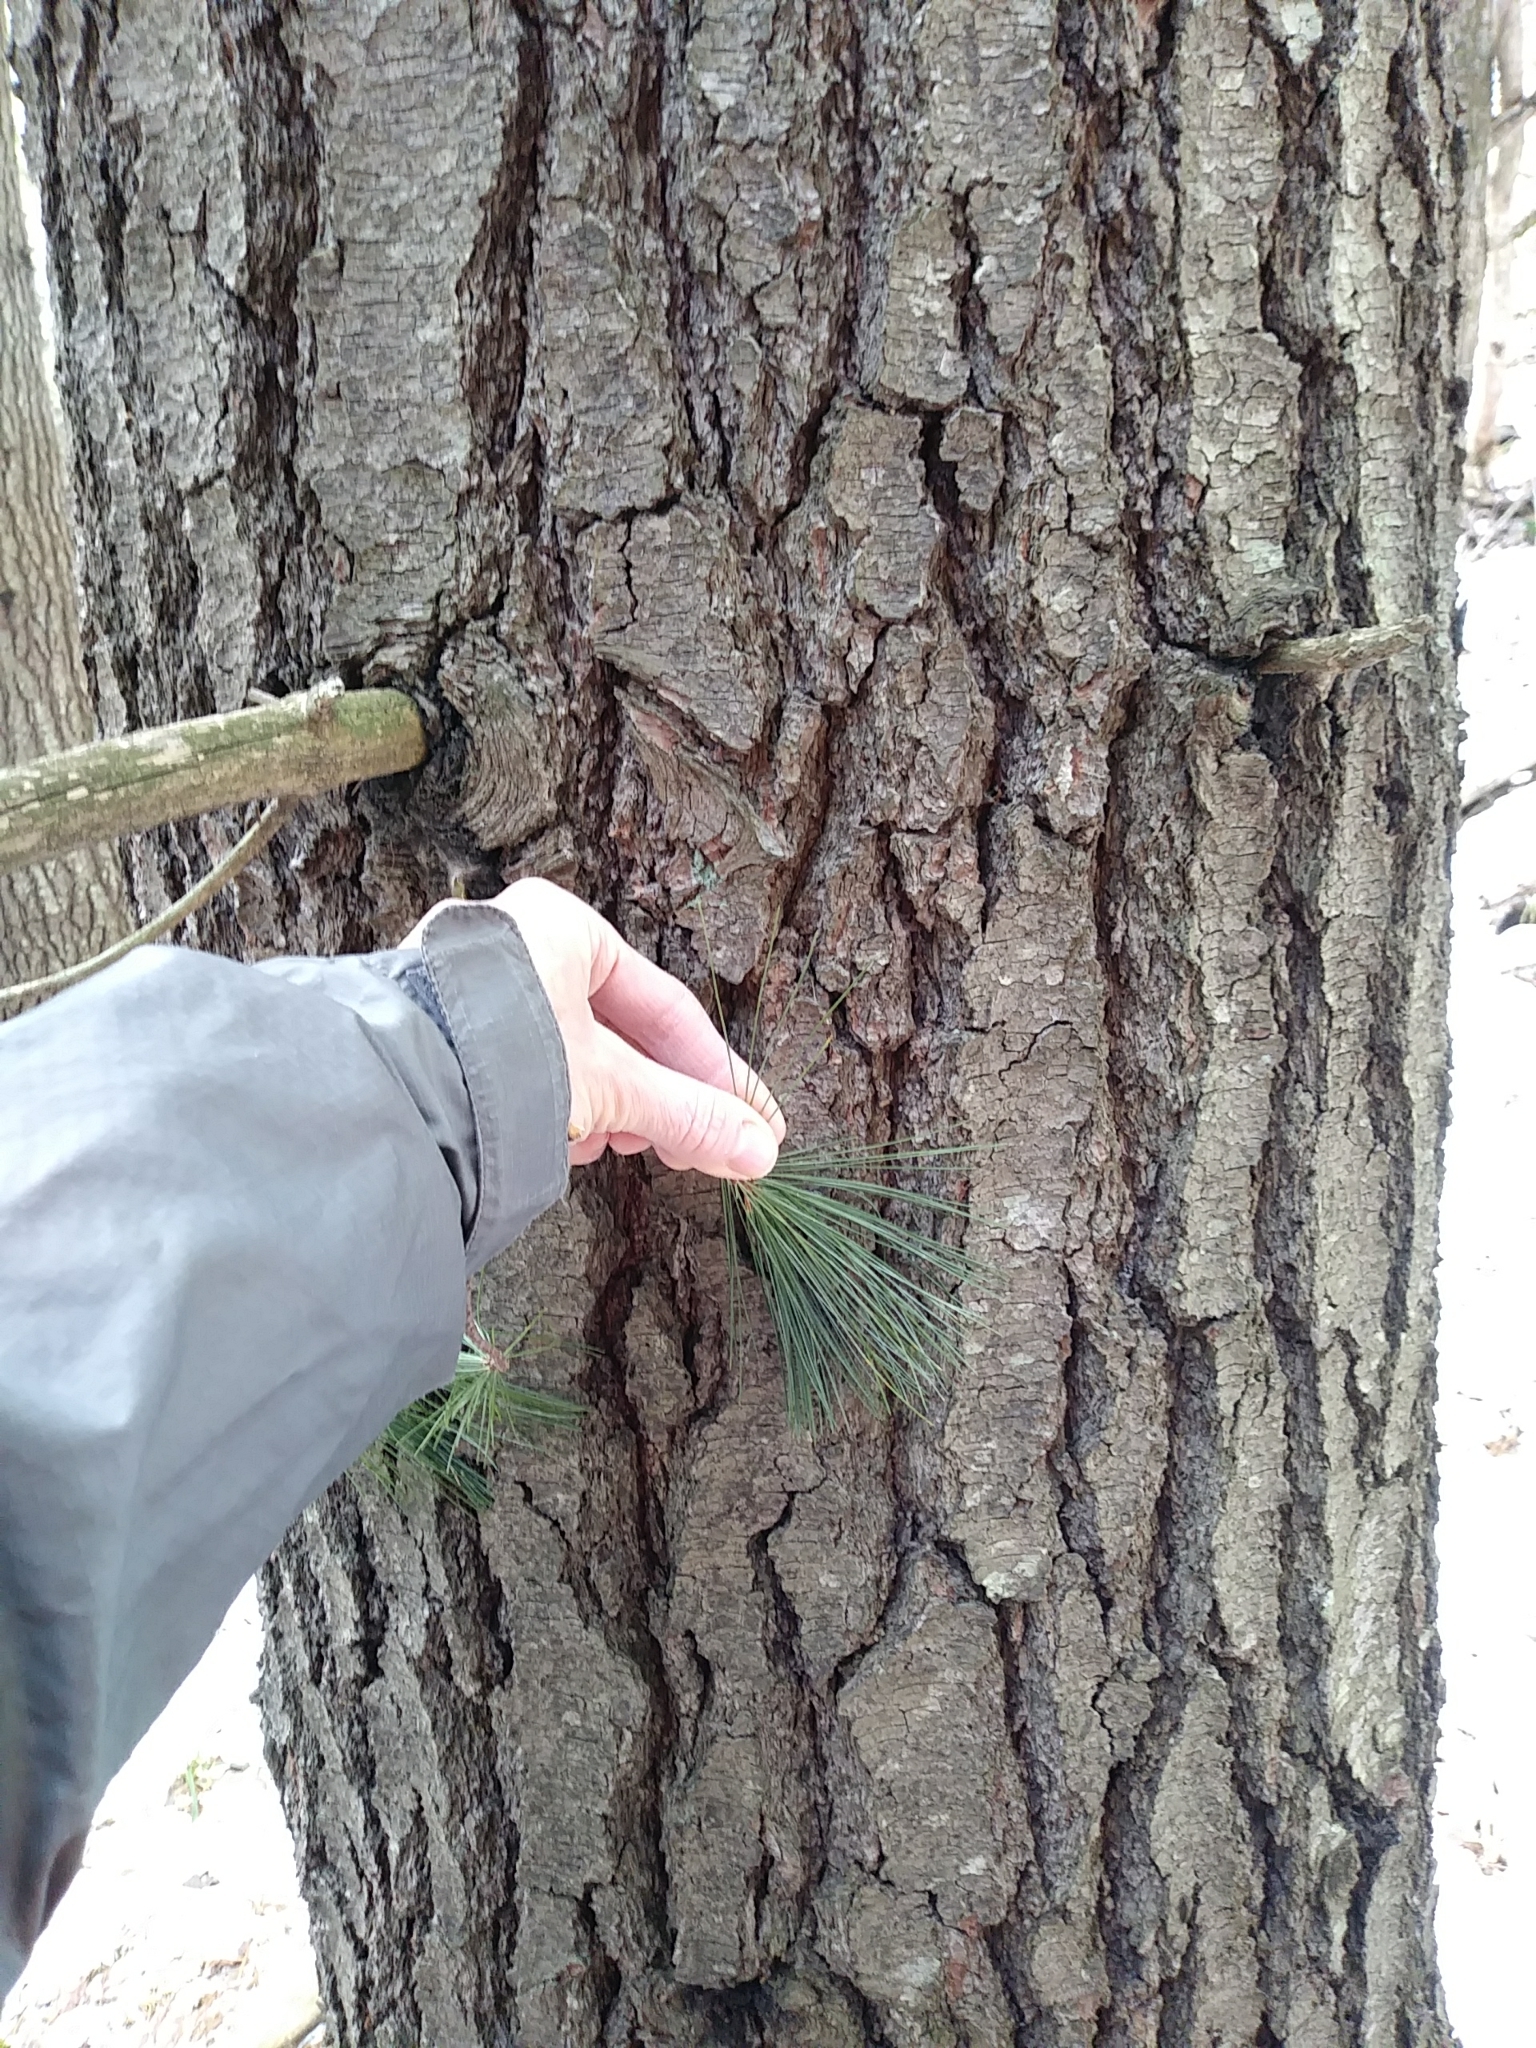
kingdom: Plantae
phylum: Tracheophyta
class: Pinopsida
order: Pinales
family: Pinaceae
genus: Pinus
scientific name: Pinus strobus
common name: Weymouth pine
